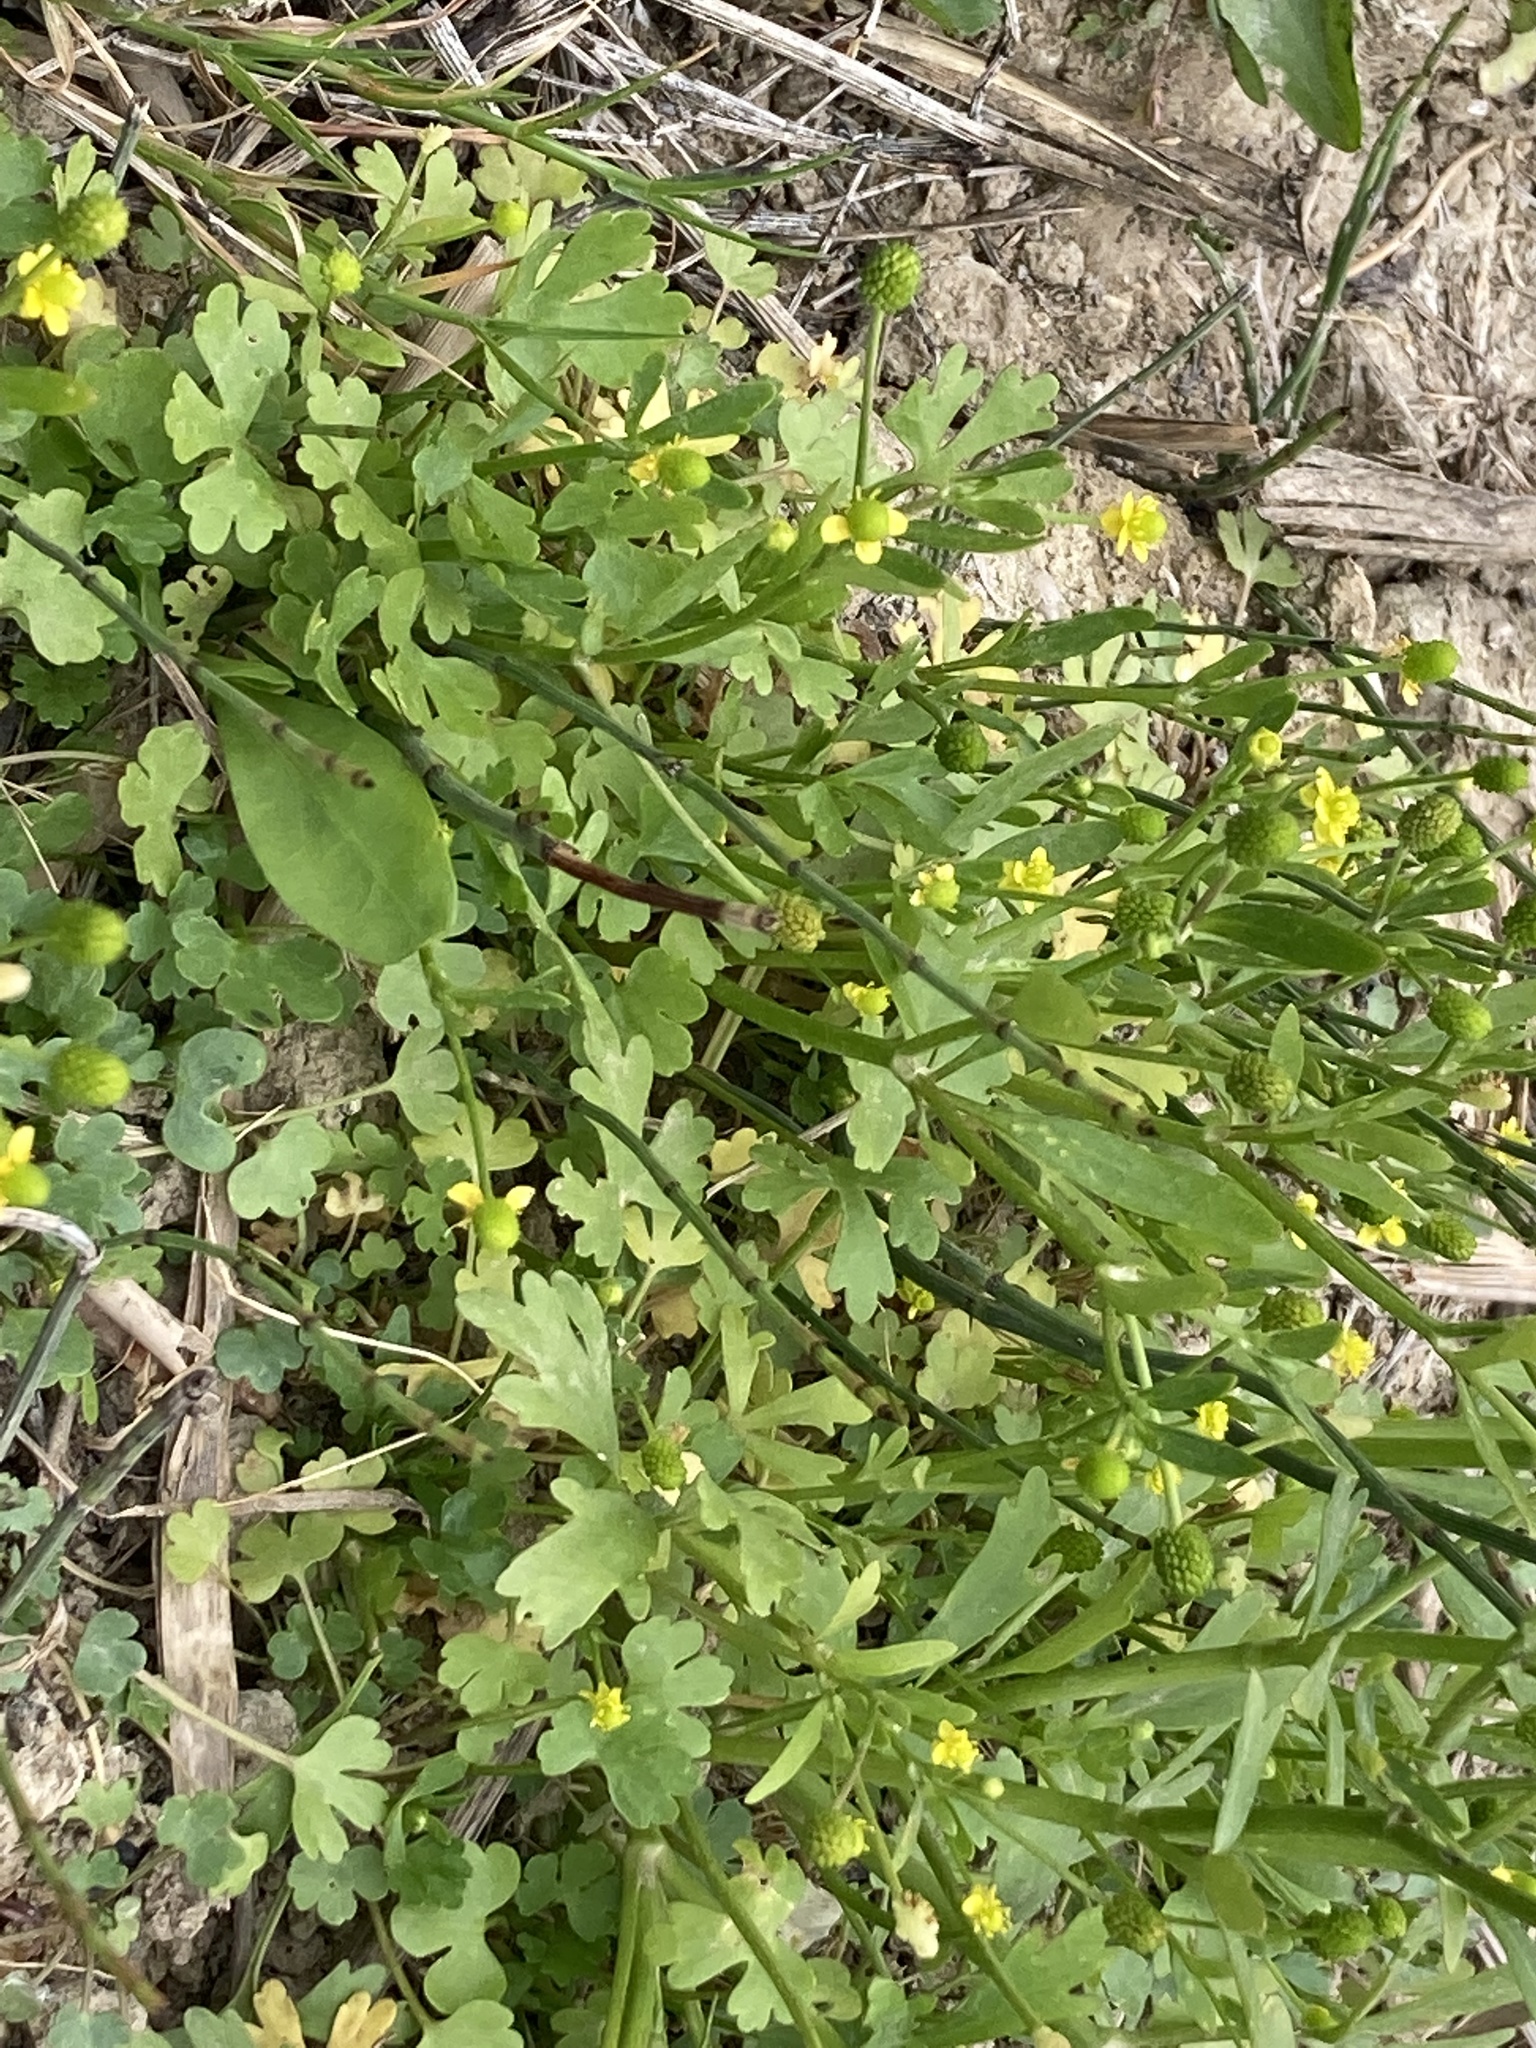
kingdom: Plantae
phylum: Tracheophyta
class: Magnoliopsida
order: Ranunculales
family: Ranunculaceae
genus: Ranunculus
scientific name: Ranunculus sceleratus
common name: Celery-leaved buttercup
